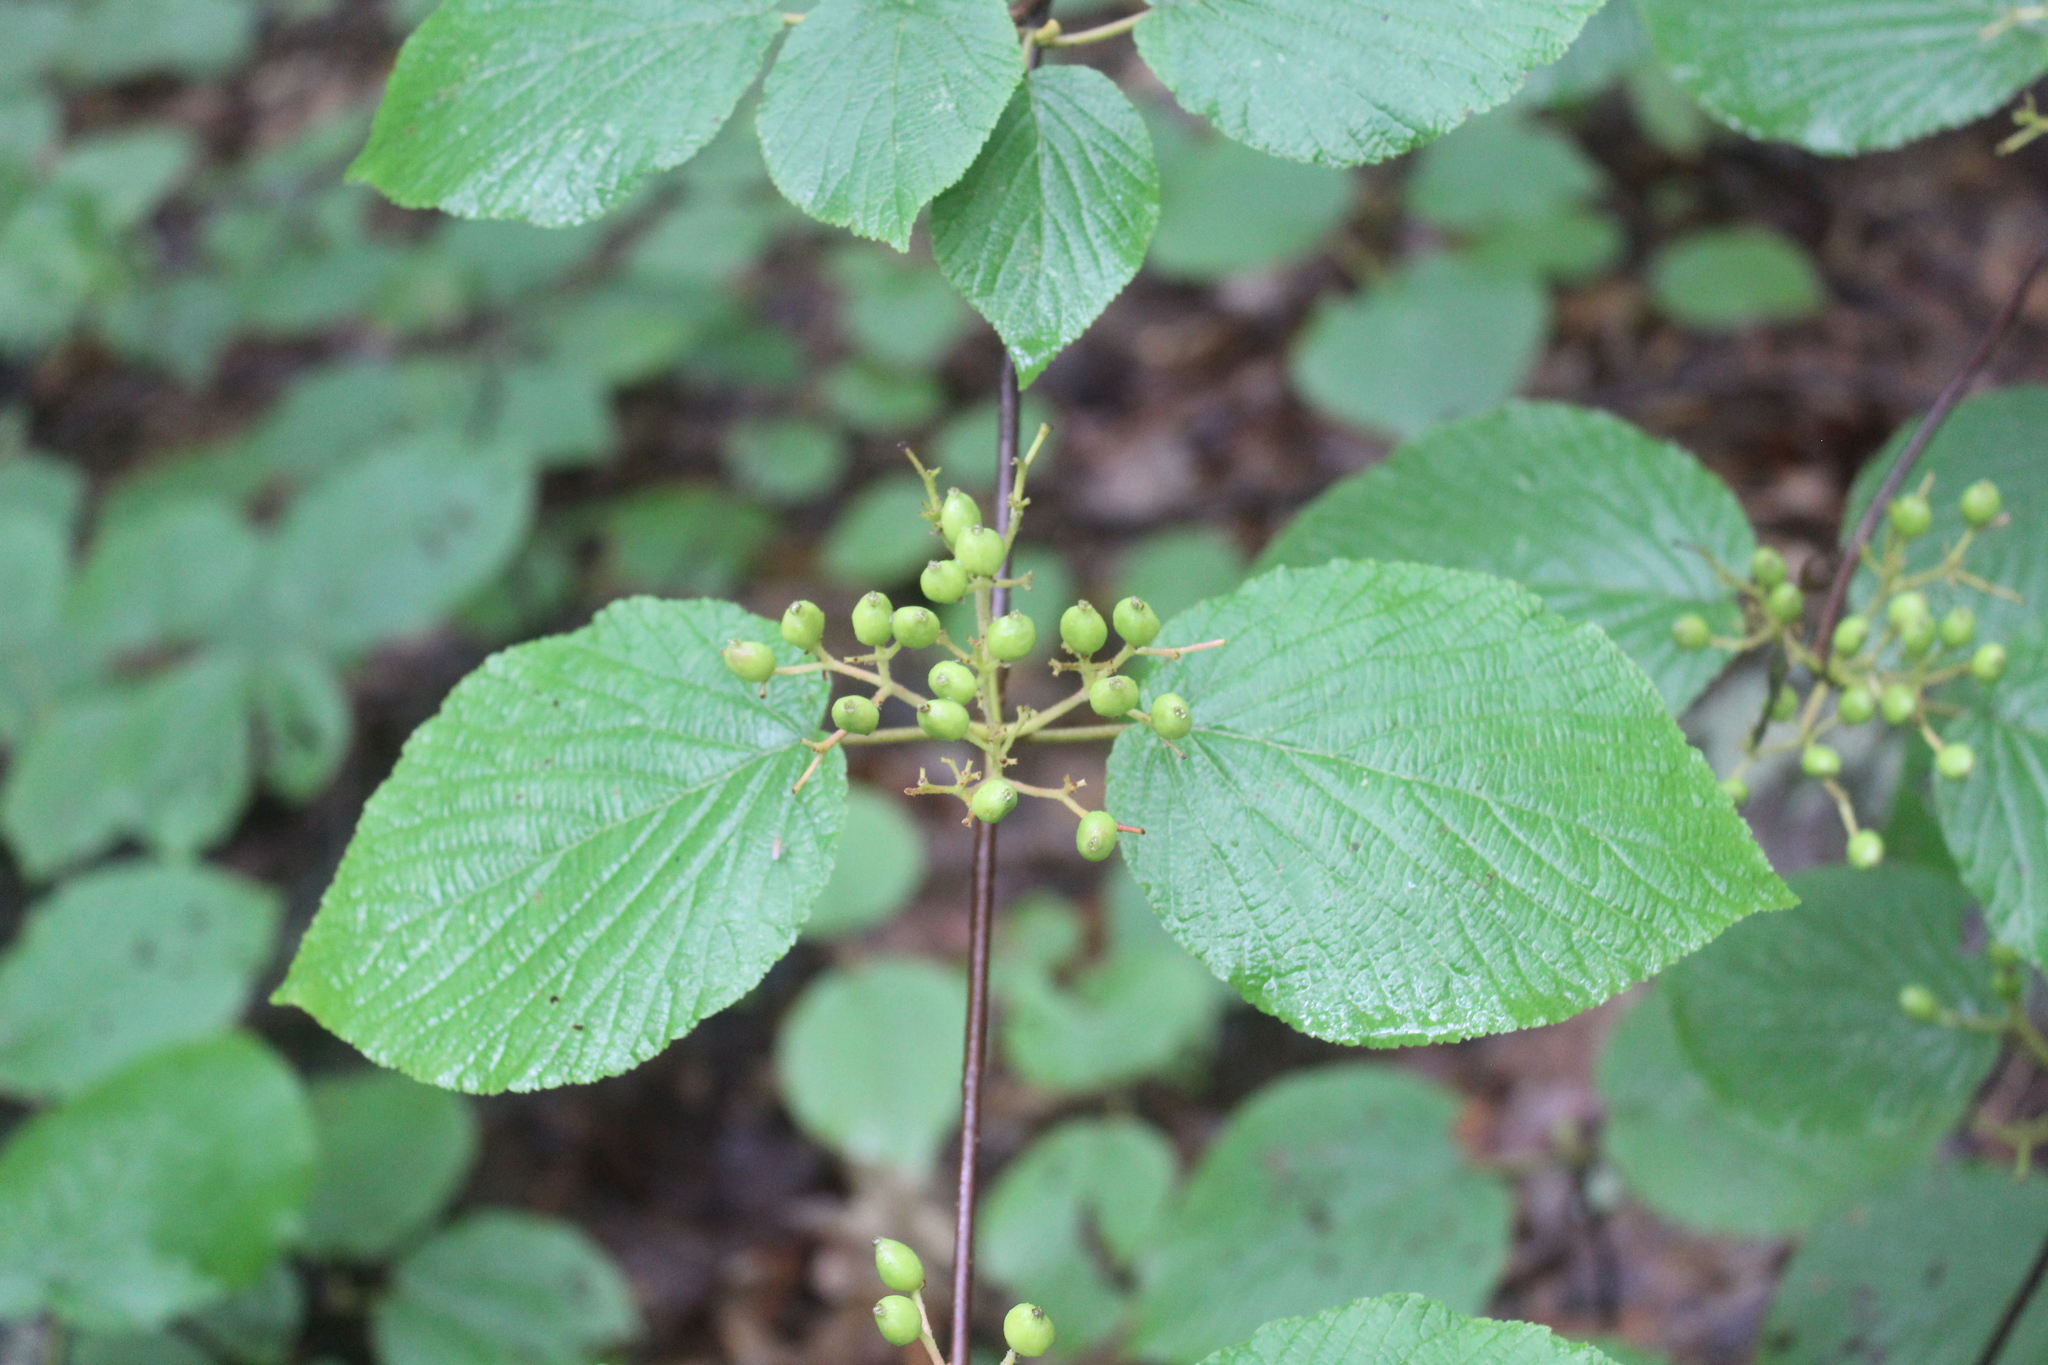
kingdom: Plantae
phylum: Tracheophyta
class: Magnoliopsida
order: Dipsacales
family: Viburnaceae
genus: Viburnum
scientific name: Viburnum lantanoides
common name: Hobblebush
